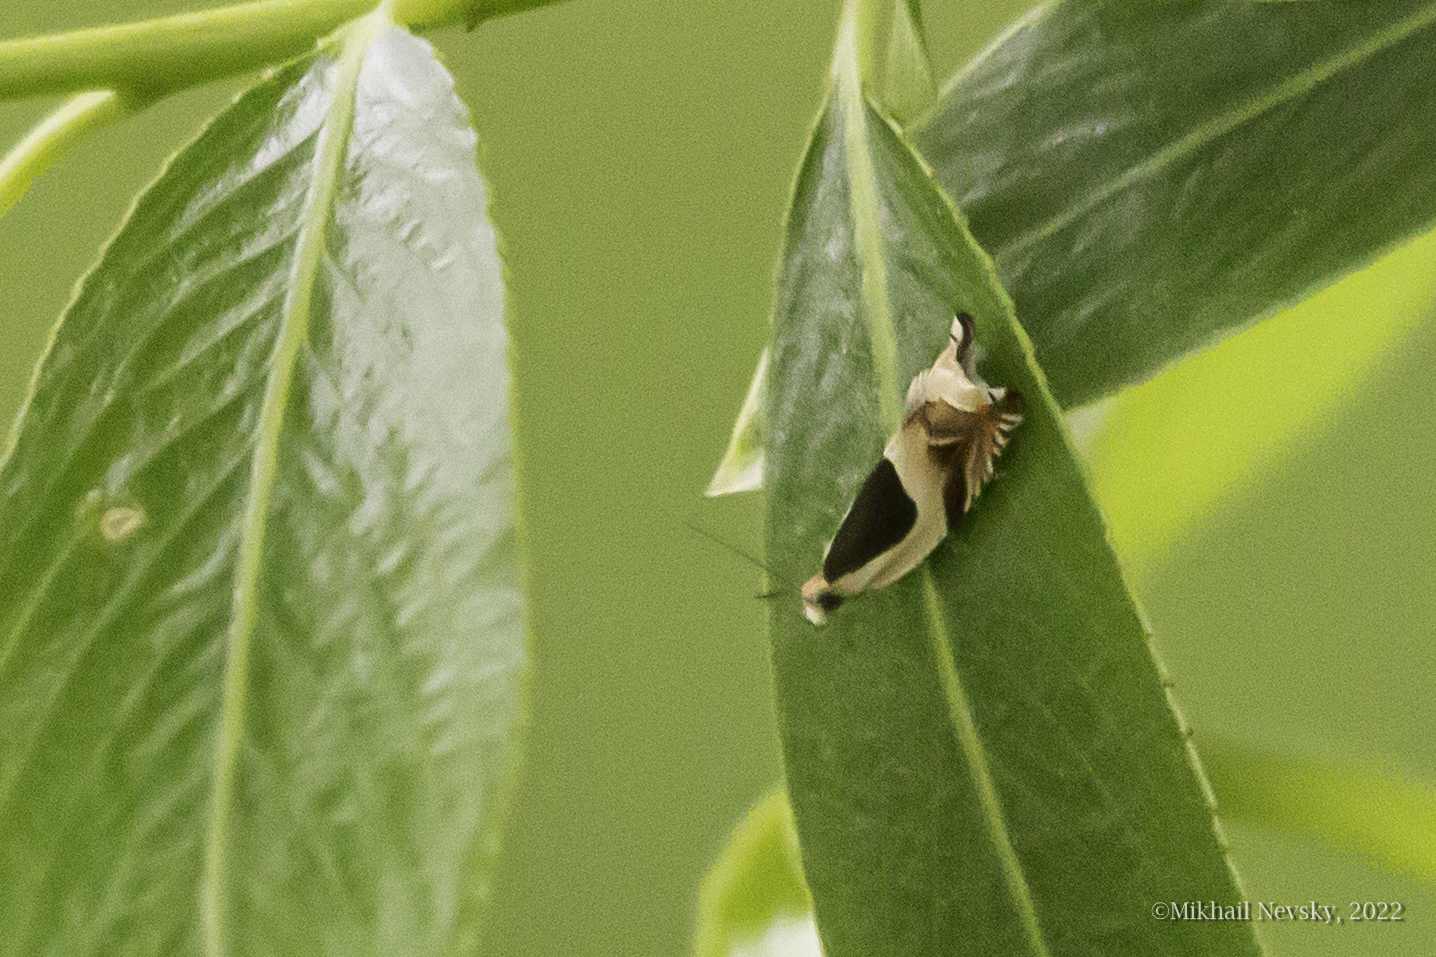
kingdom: Animalia
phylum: Arthropoda
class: Insecta
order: Lepidoptera
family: Tortricidae
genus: Ancylis
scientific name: Ancylis badiana
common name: Common roller
